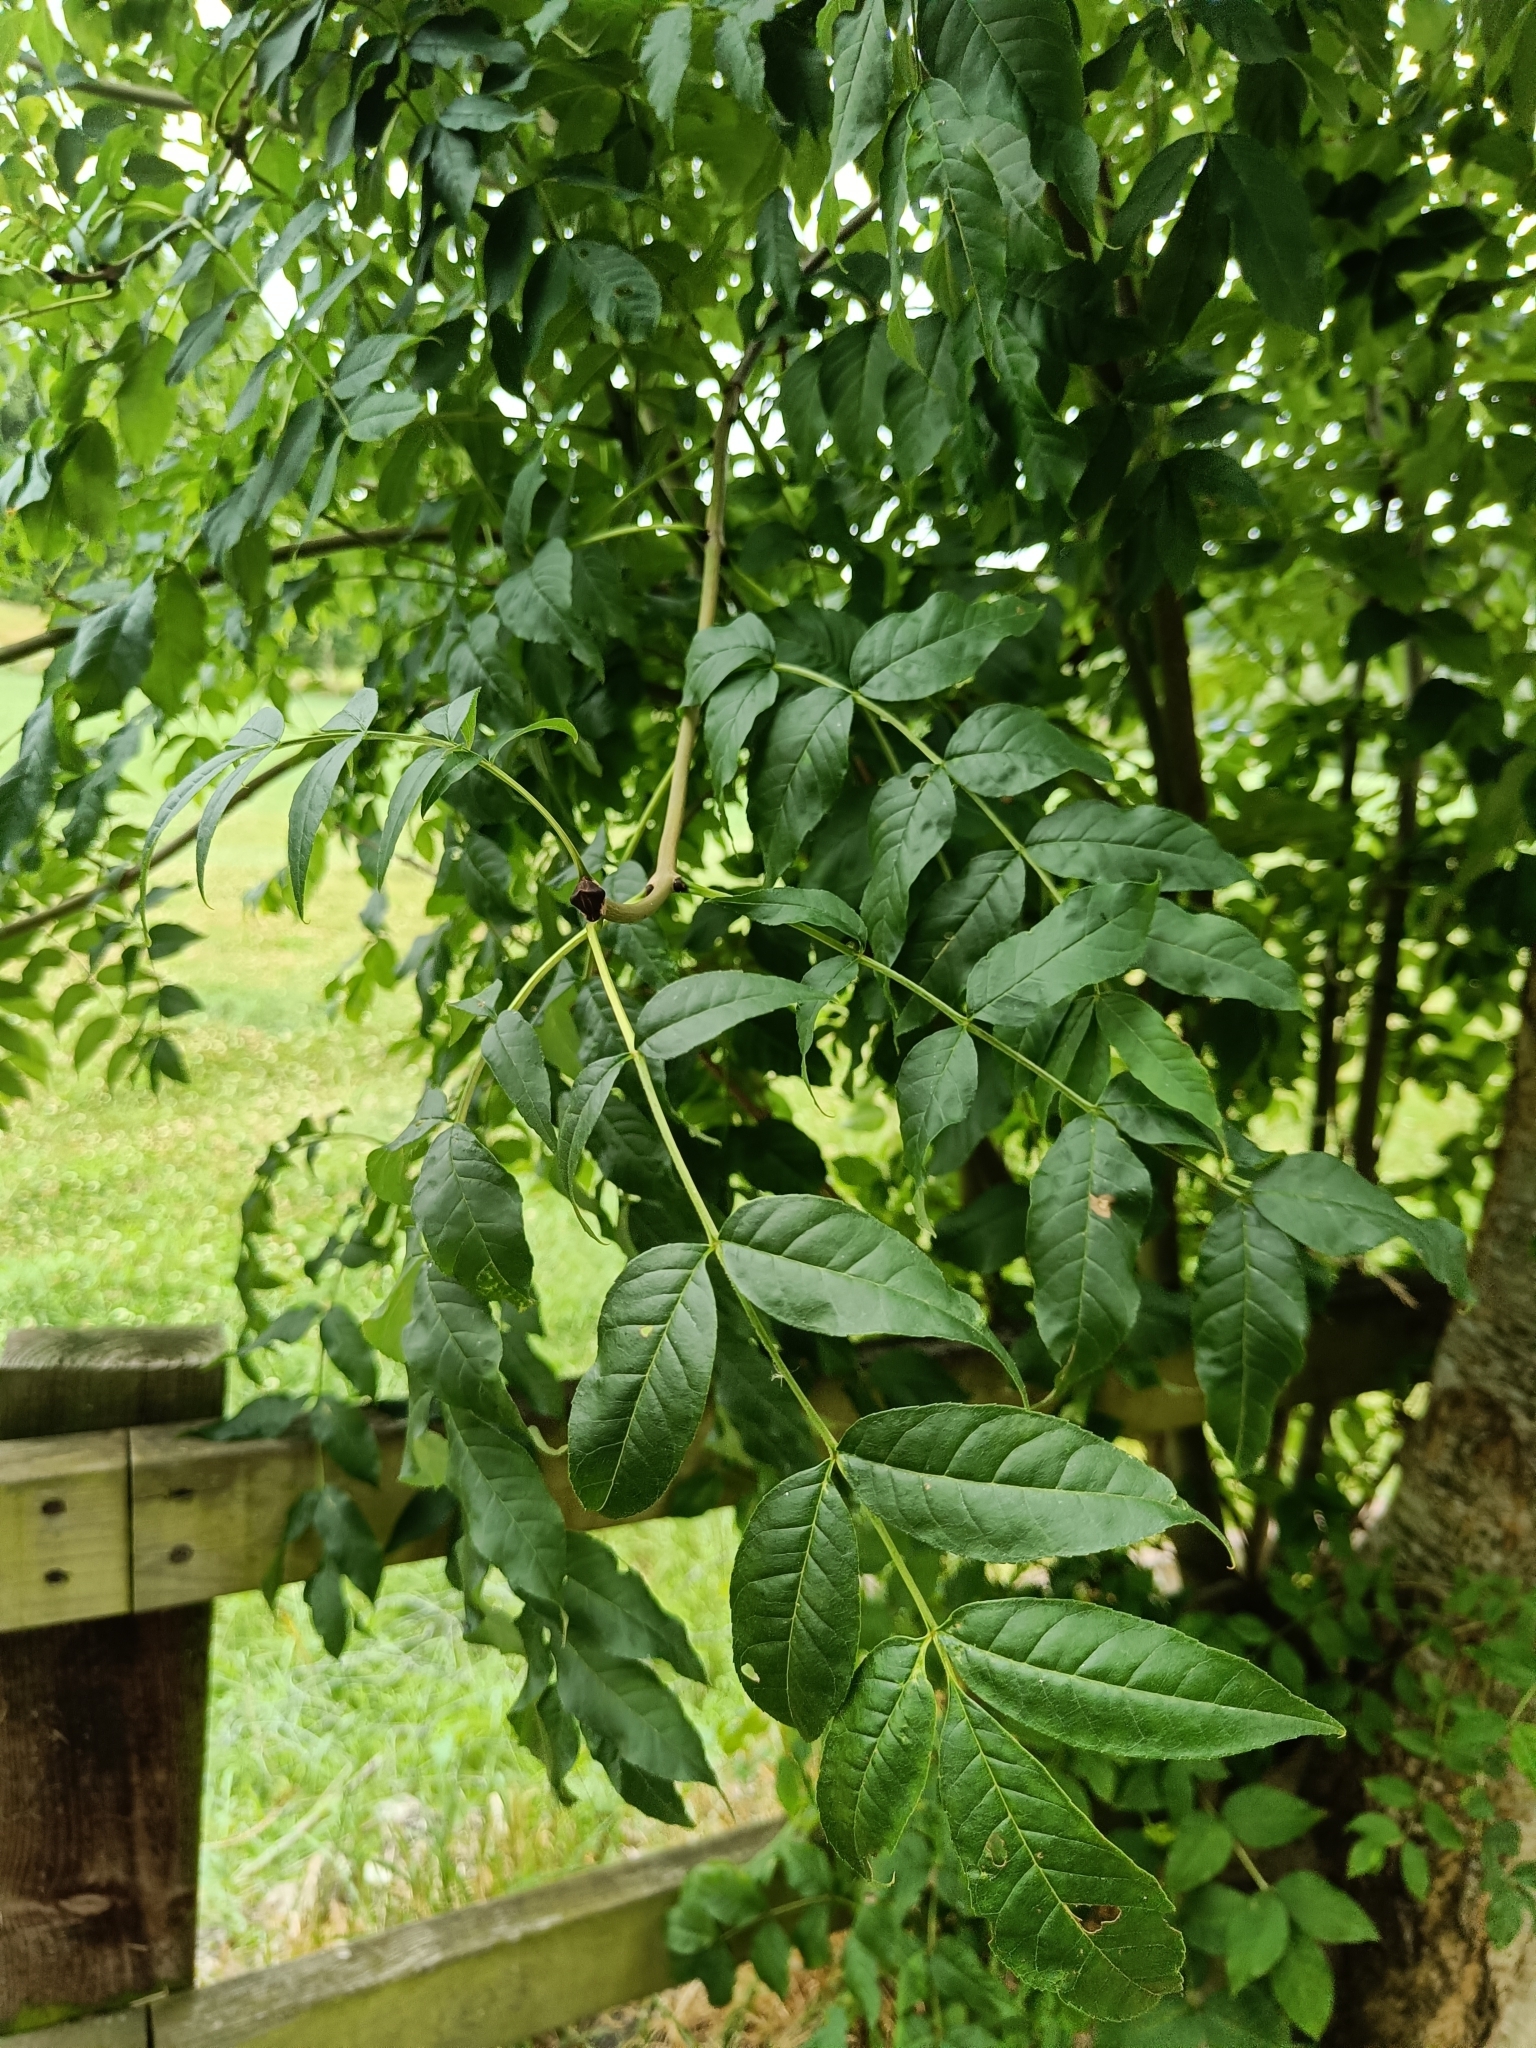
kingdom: Plantae
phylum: Tracheophyta
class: Magnoliopsida
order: Lamiales
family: Oleaceae
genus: Fraxinus
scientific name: Fraxinus excelsior
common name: European ash
